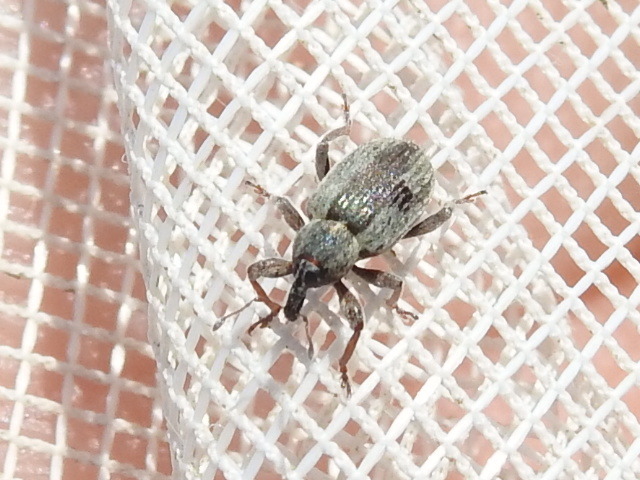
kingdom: Animalia
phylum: Arthropoda
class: Insecta
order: Coleoptera
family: Curculionidae
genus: Hypera
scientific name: Hypera postica
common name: Weevil
